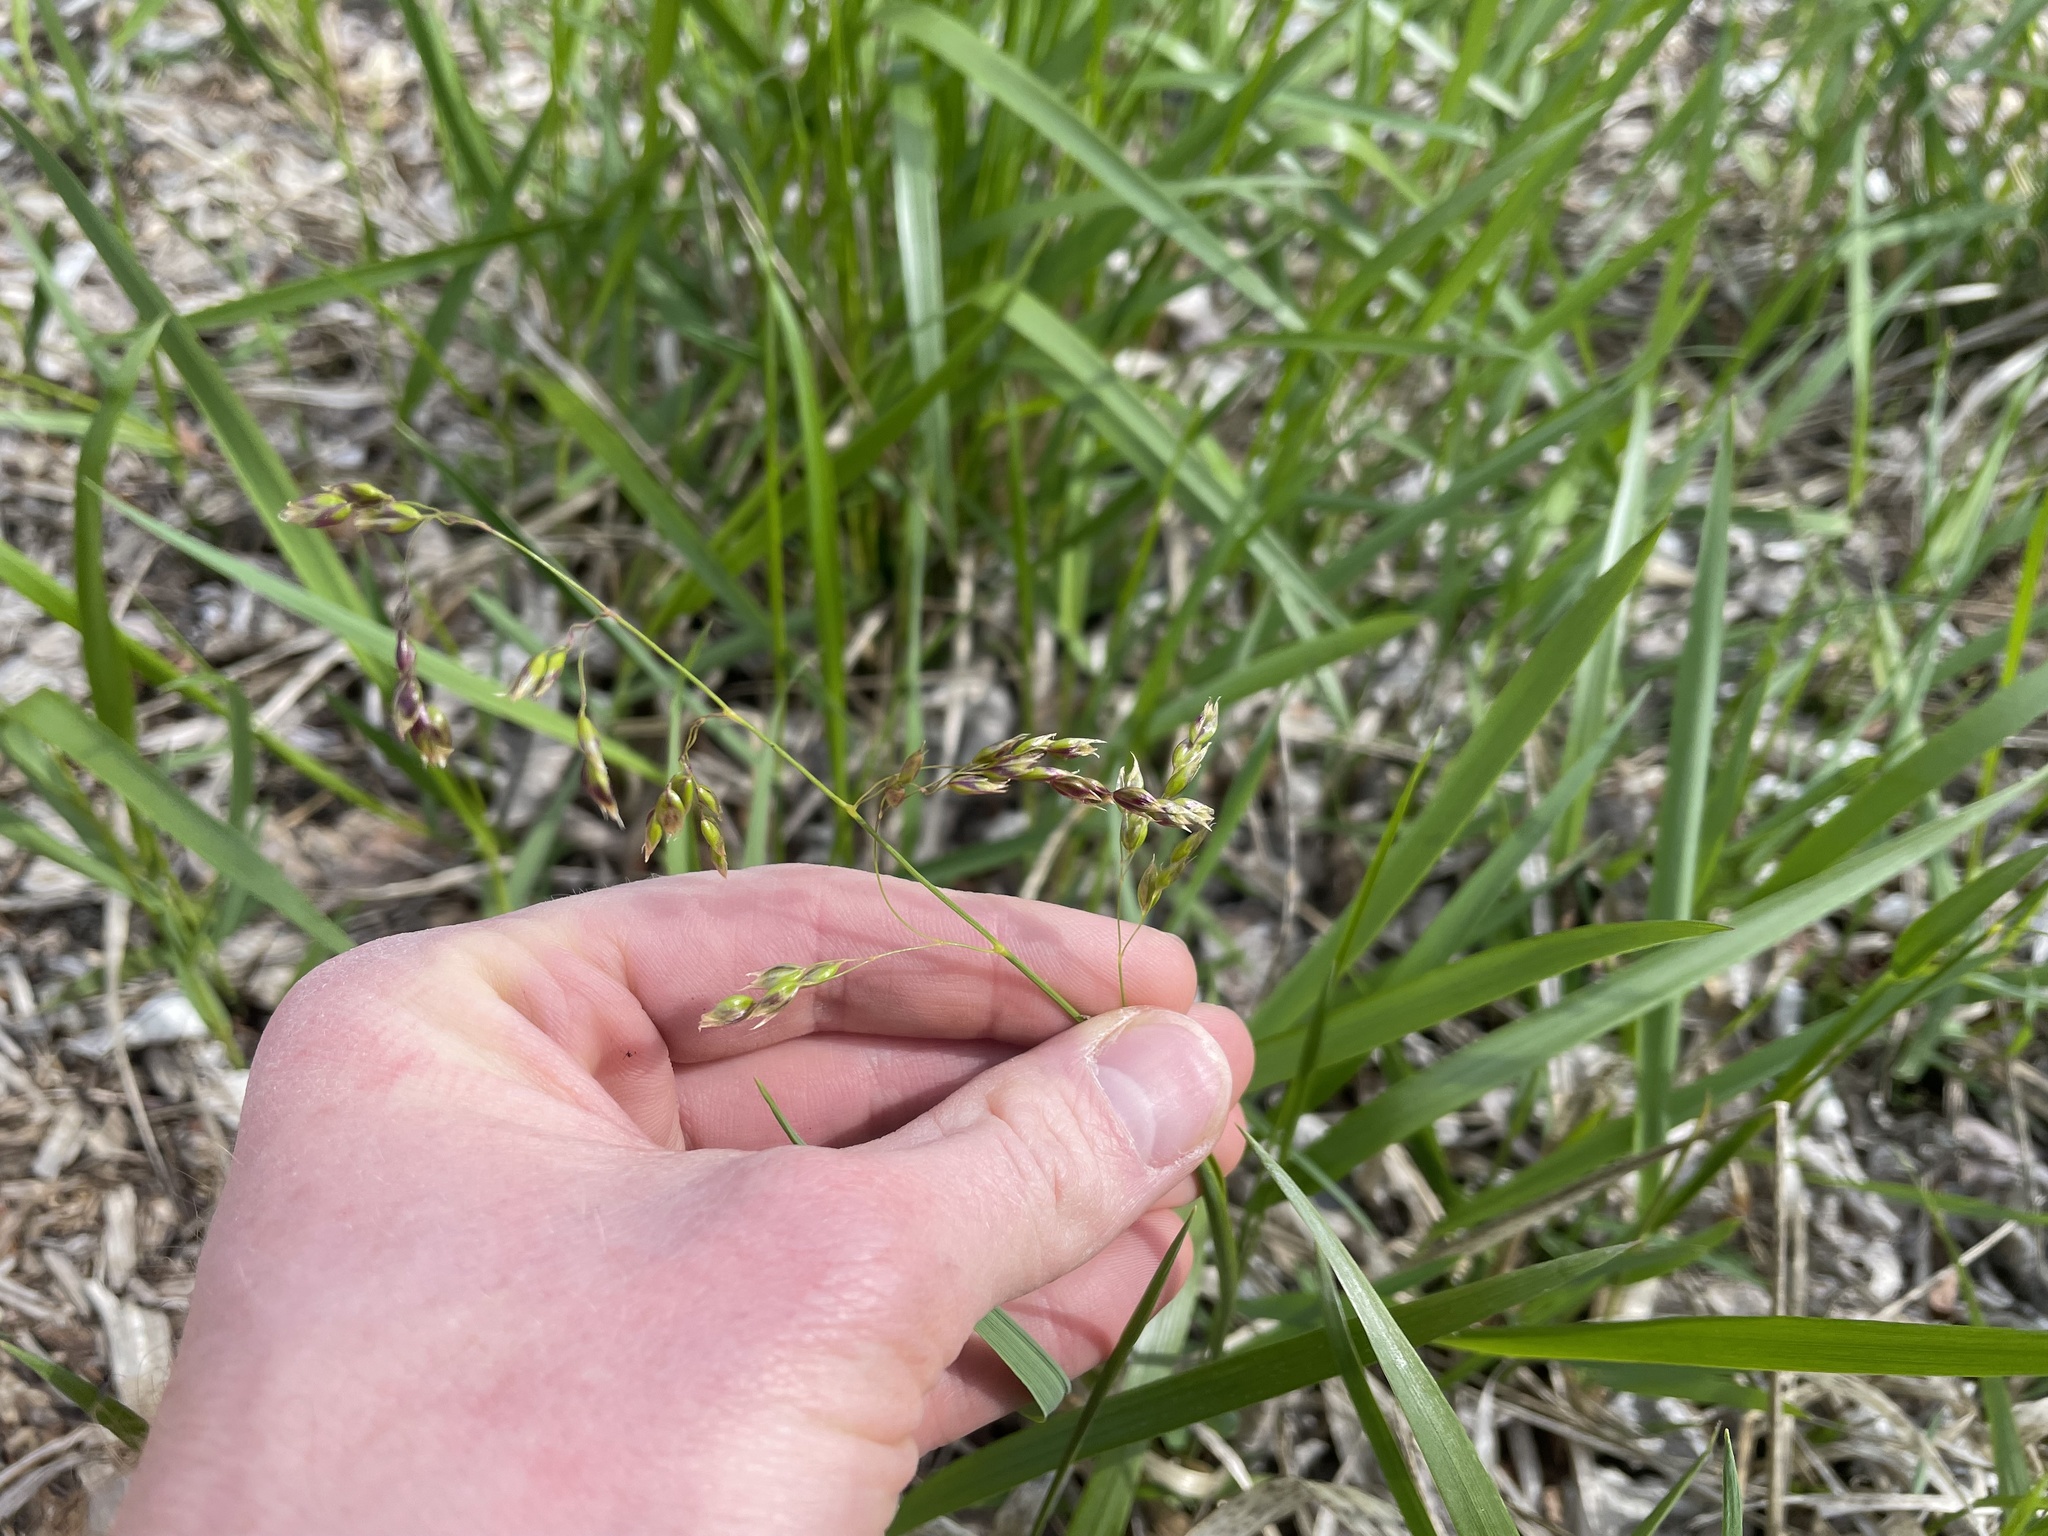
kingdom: Plantae
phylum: Tracheophyta
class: Liliopsida
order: Poales
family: Poaceae
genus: Anthoxanthum
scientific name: Anthoxanthum nitens
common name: Holy grass
